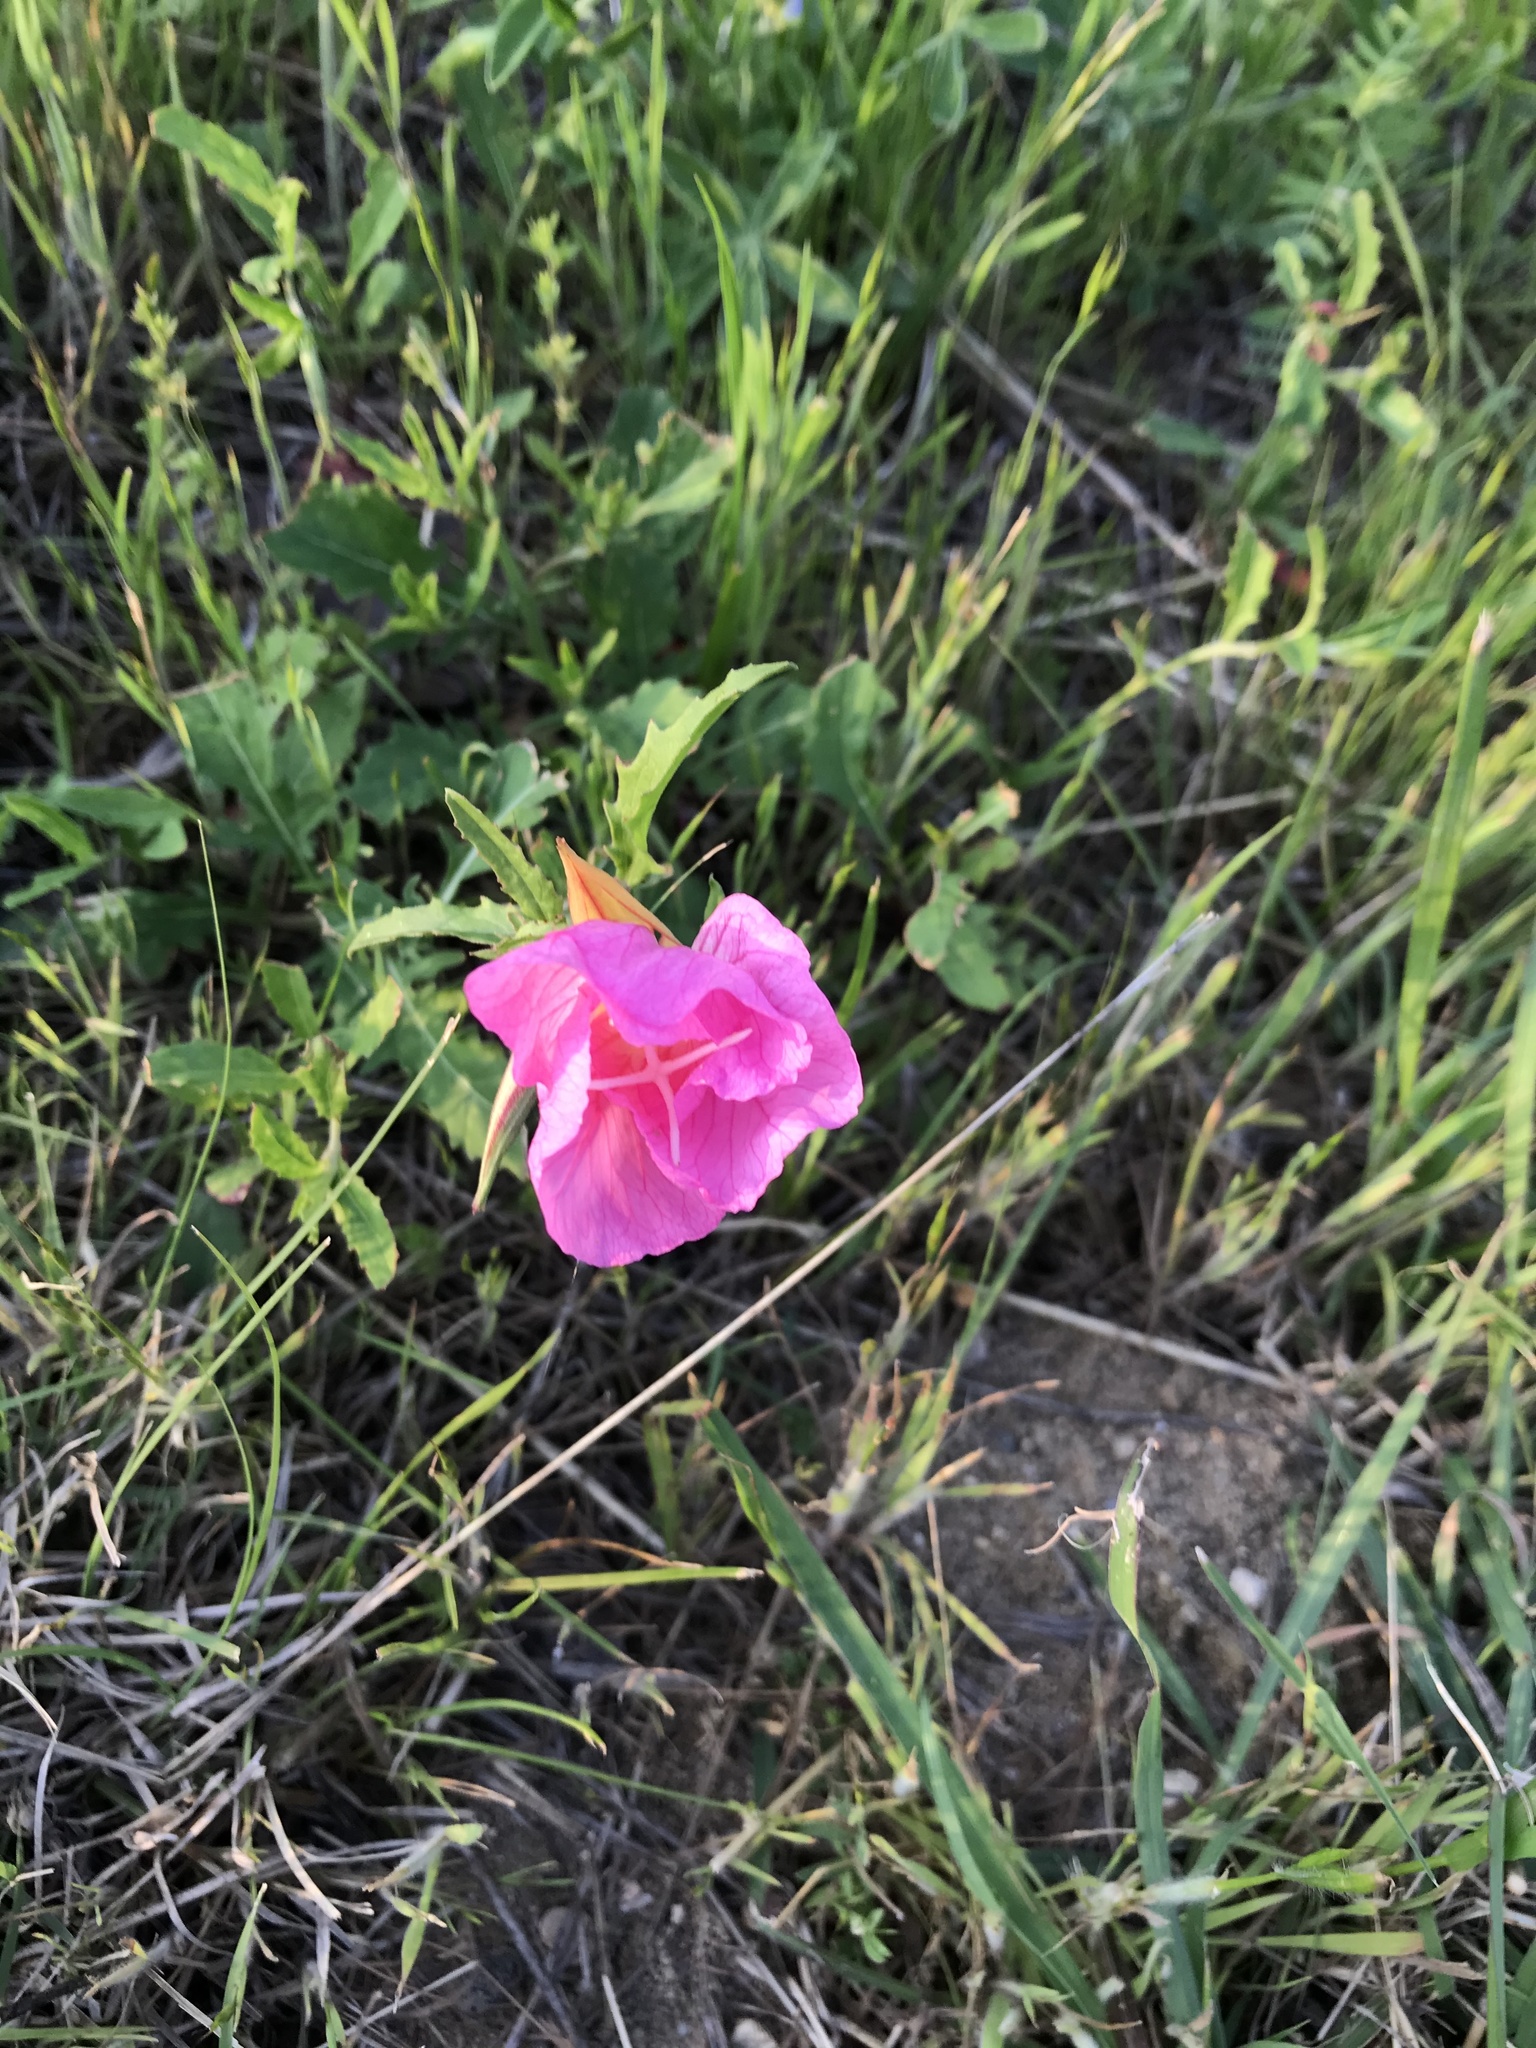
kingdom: Plantae
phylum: Tracheophyta
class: Magnoliopsida
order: Myrtales
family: Onagraceae
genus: Oenothera
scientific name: Oenothera speciosa
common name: White evening-primrose
